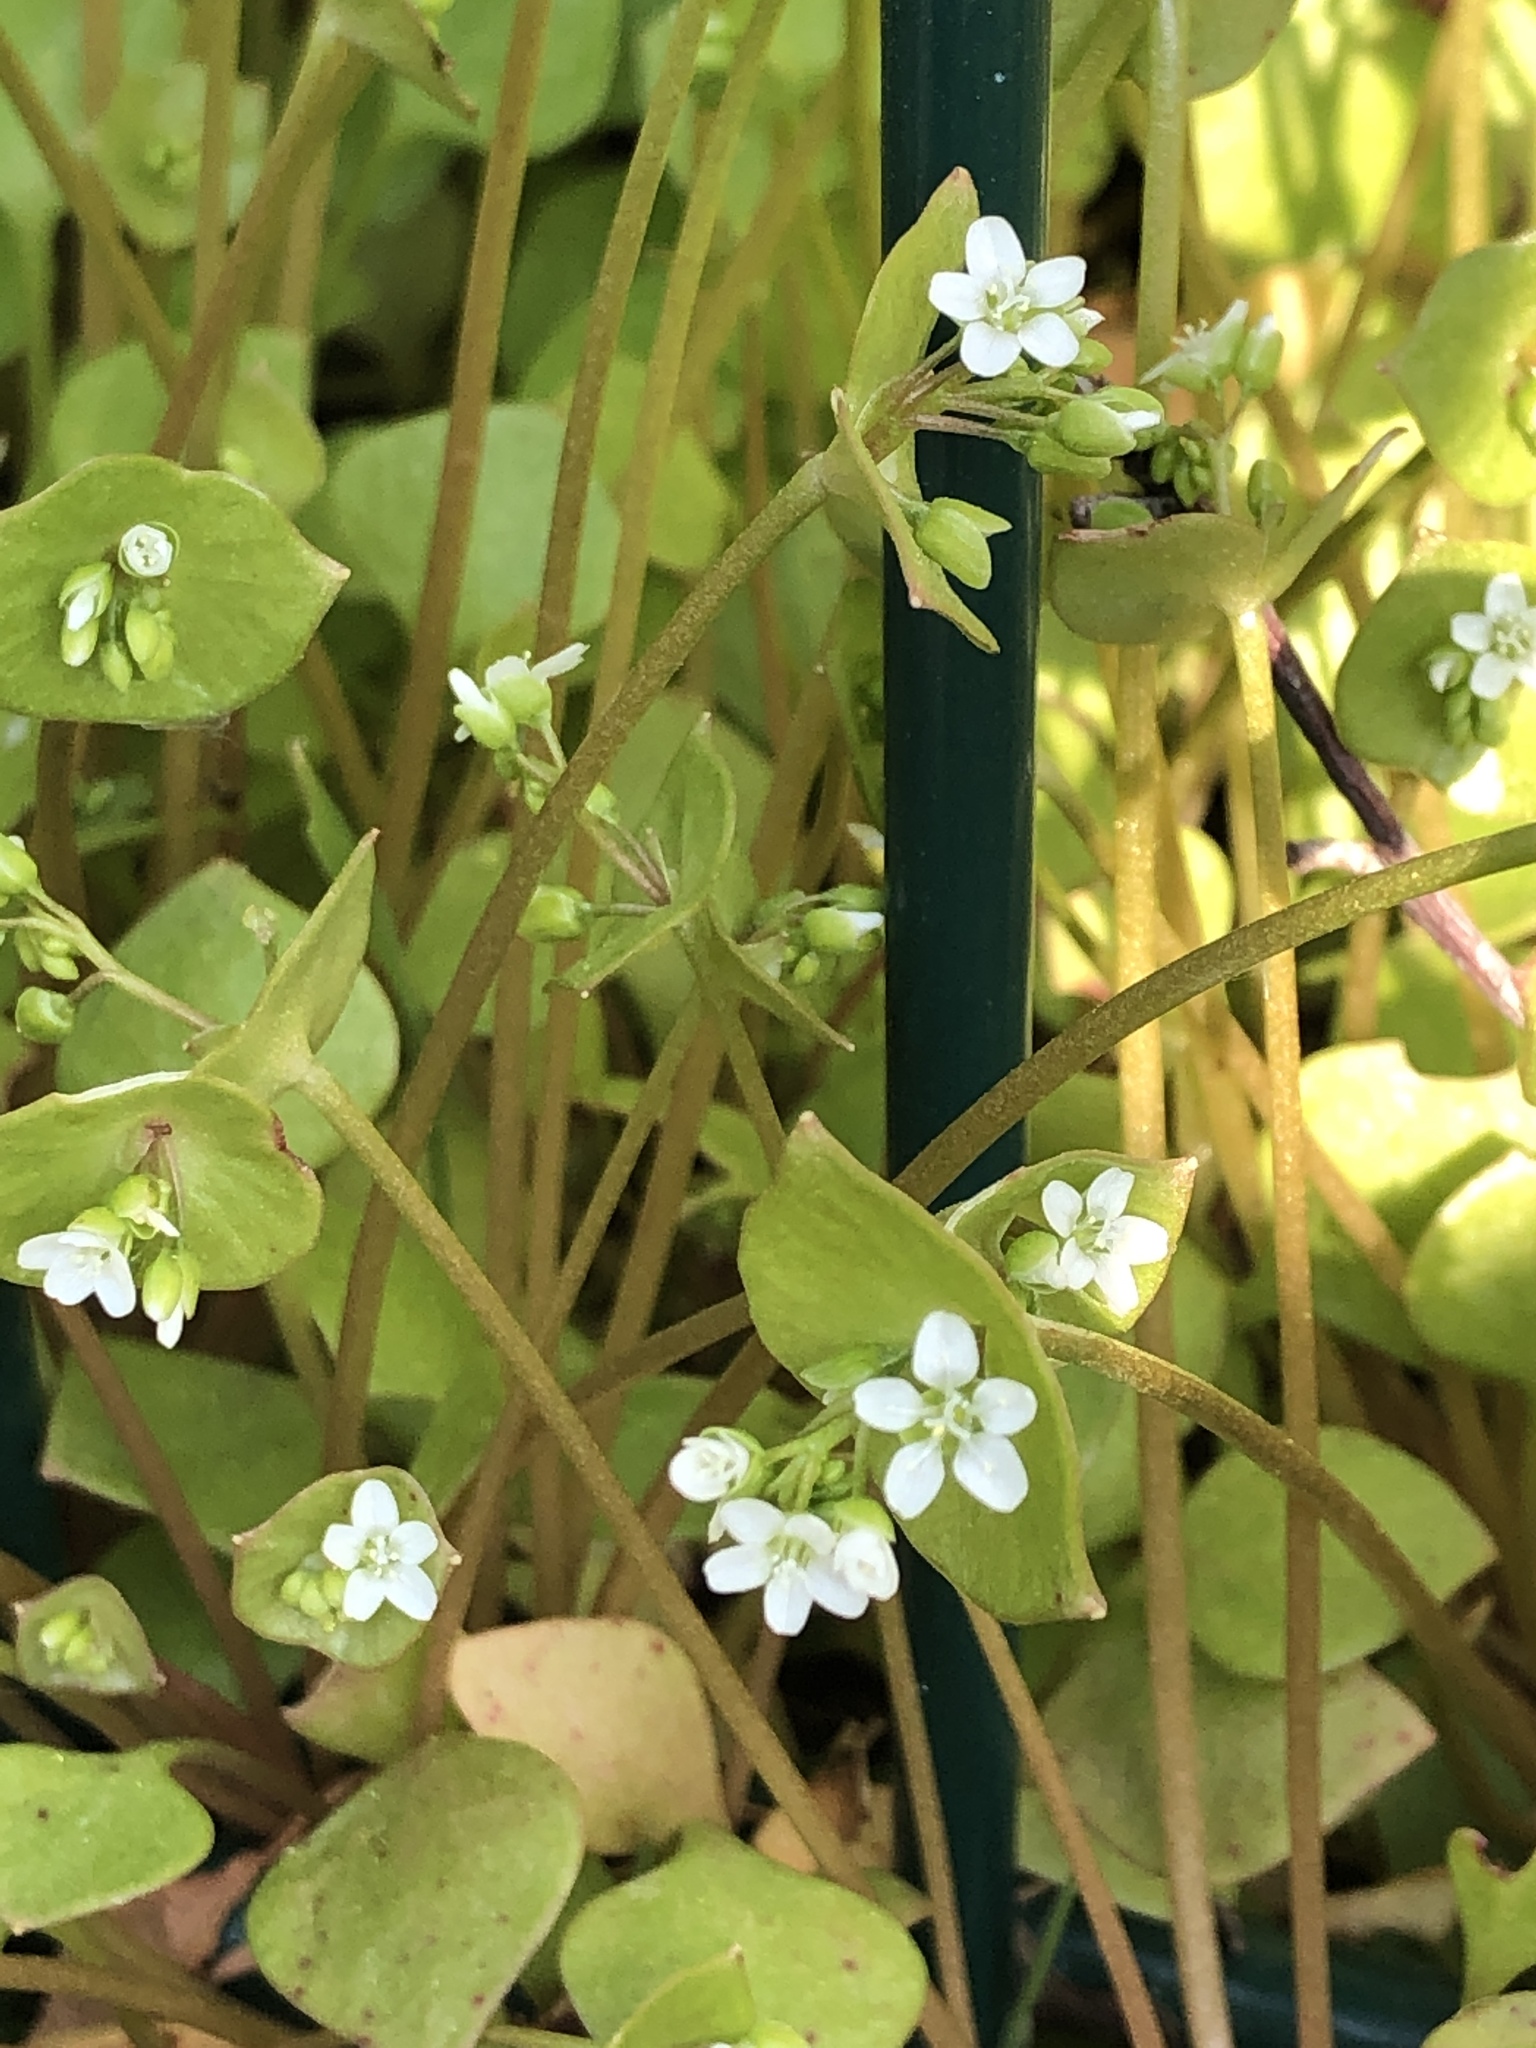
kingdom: Plantae
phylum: Tracheophyta
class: Magnoliopsida
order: Caryophyllales
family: Montiaceae
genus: Claytonia
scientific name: Claytonia perfoliata
